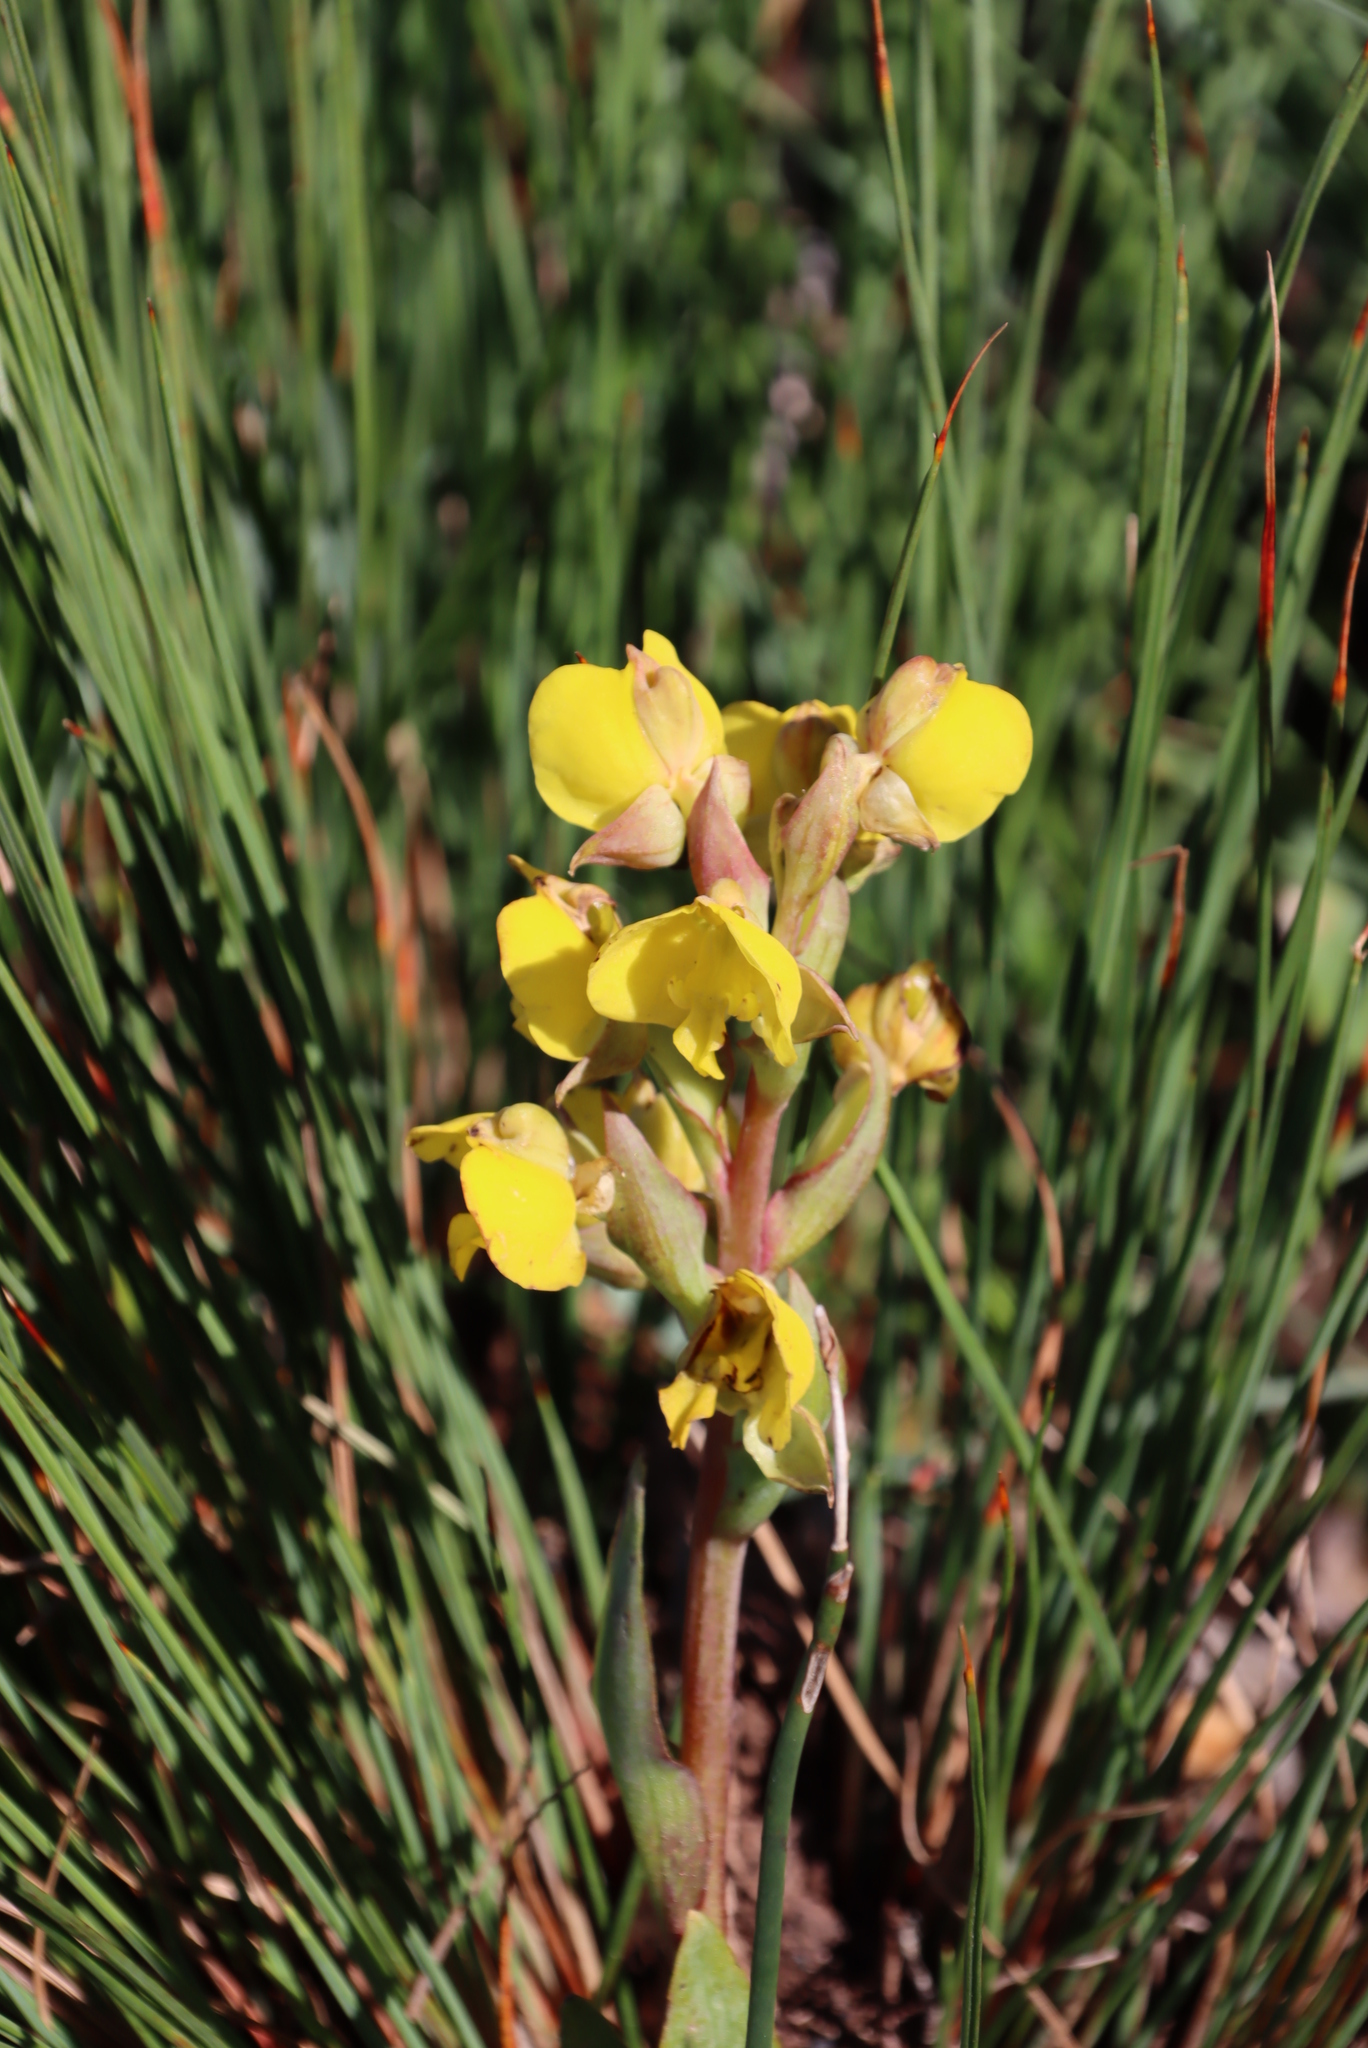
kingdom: Plantae
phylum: Tracheophyta
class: Liliopsida
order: Asparagales
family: Orchidaceae
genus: Pterygodium
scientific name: Pterygodium acutifolium
